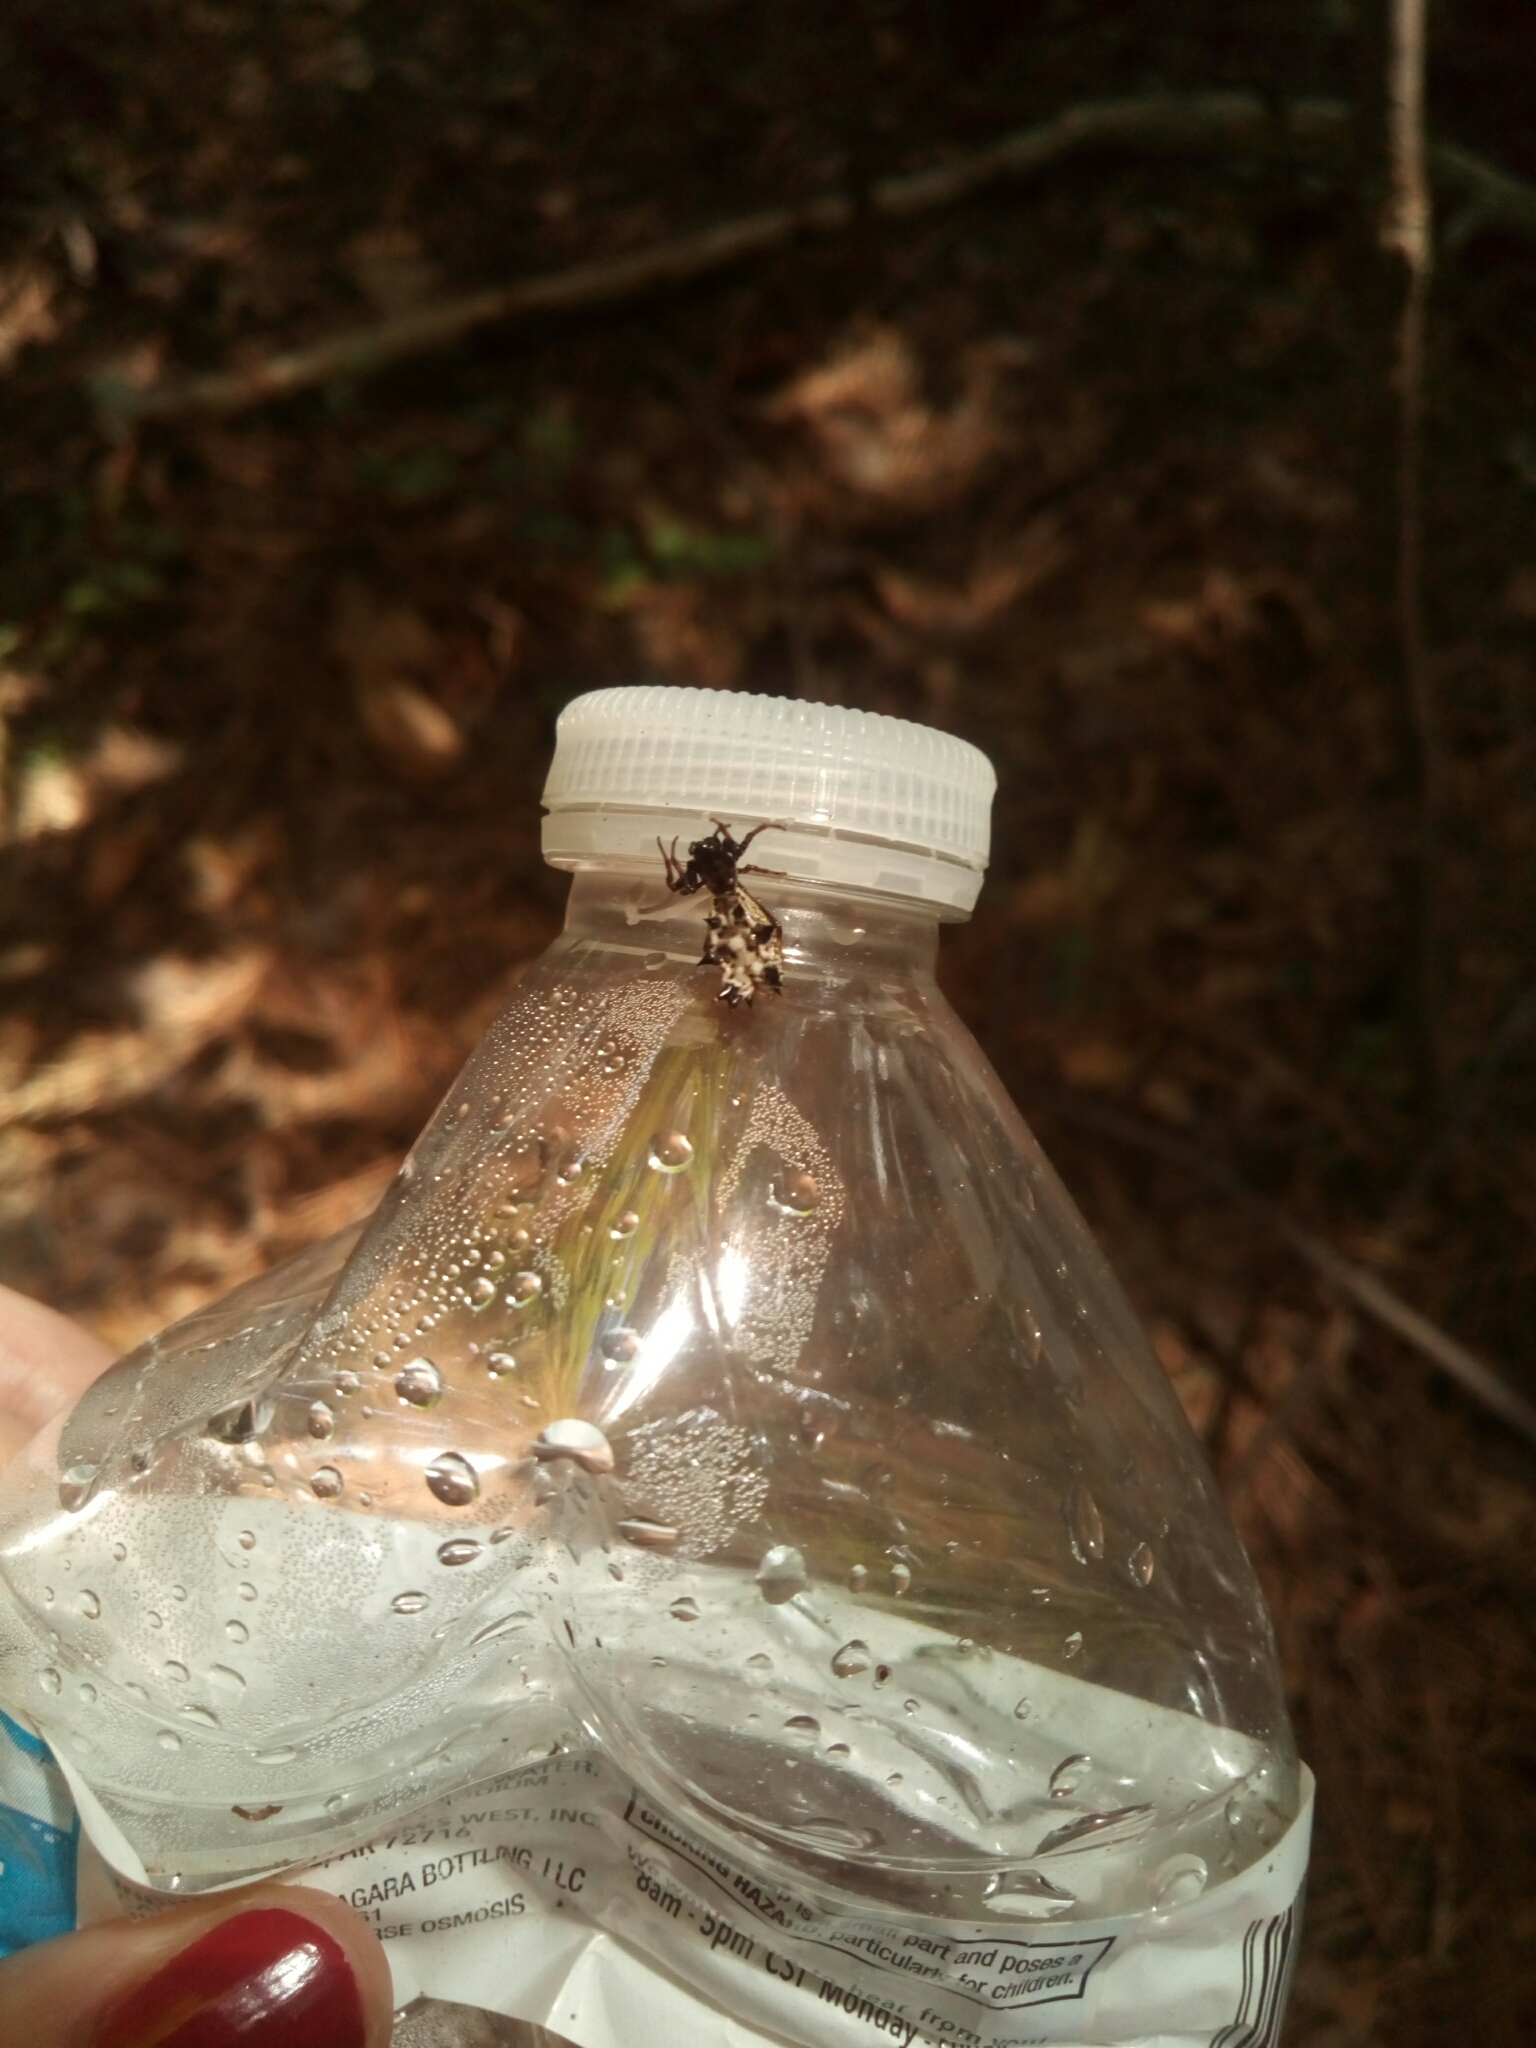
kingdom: Animalia
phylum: Arthropoda
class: Arachnida
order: Araneae
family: Araneidae
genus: Micrathena
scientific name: Micrathena gracilis
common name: Orb weavers
